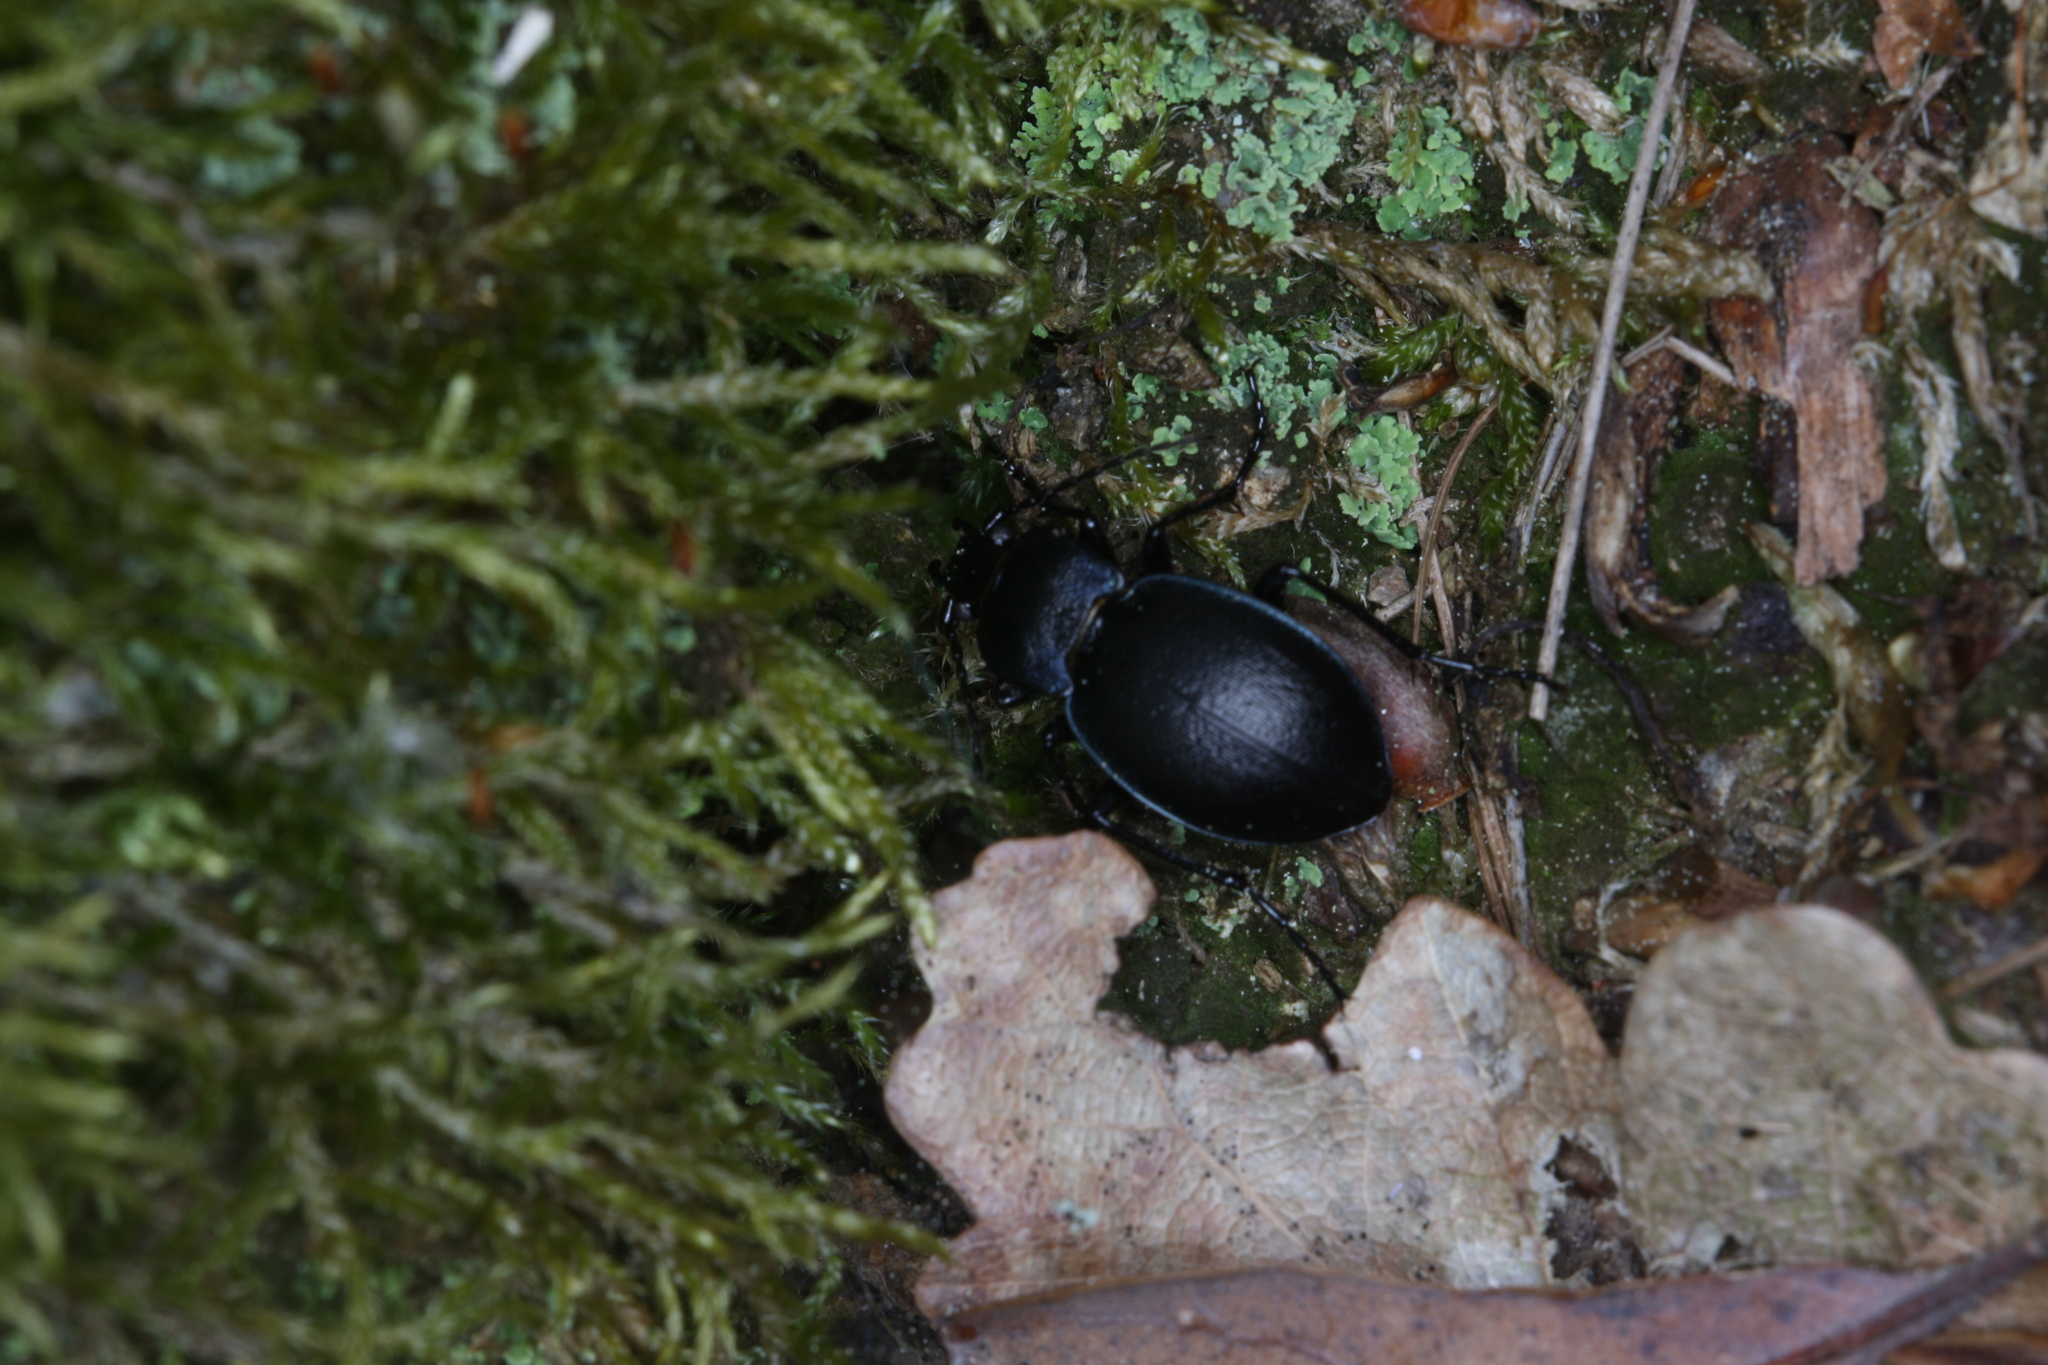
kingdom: Animalia
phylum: Arthropoda
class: Insecta
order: Coleoptera
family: Carabidae
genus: Carabus
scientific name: Carabus convexus
